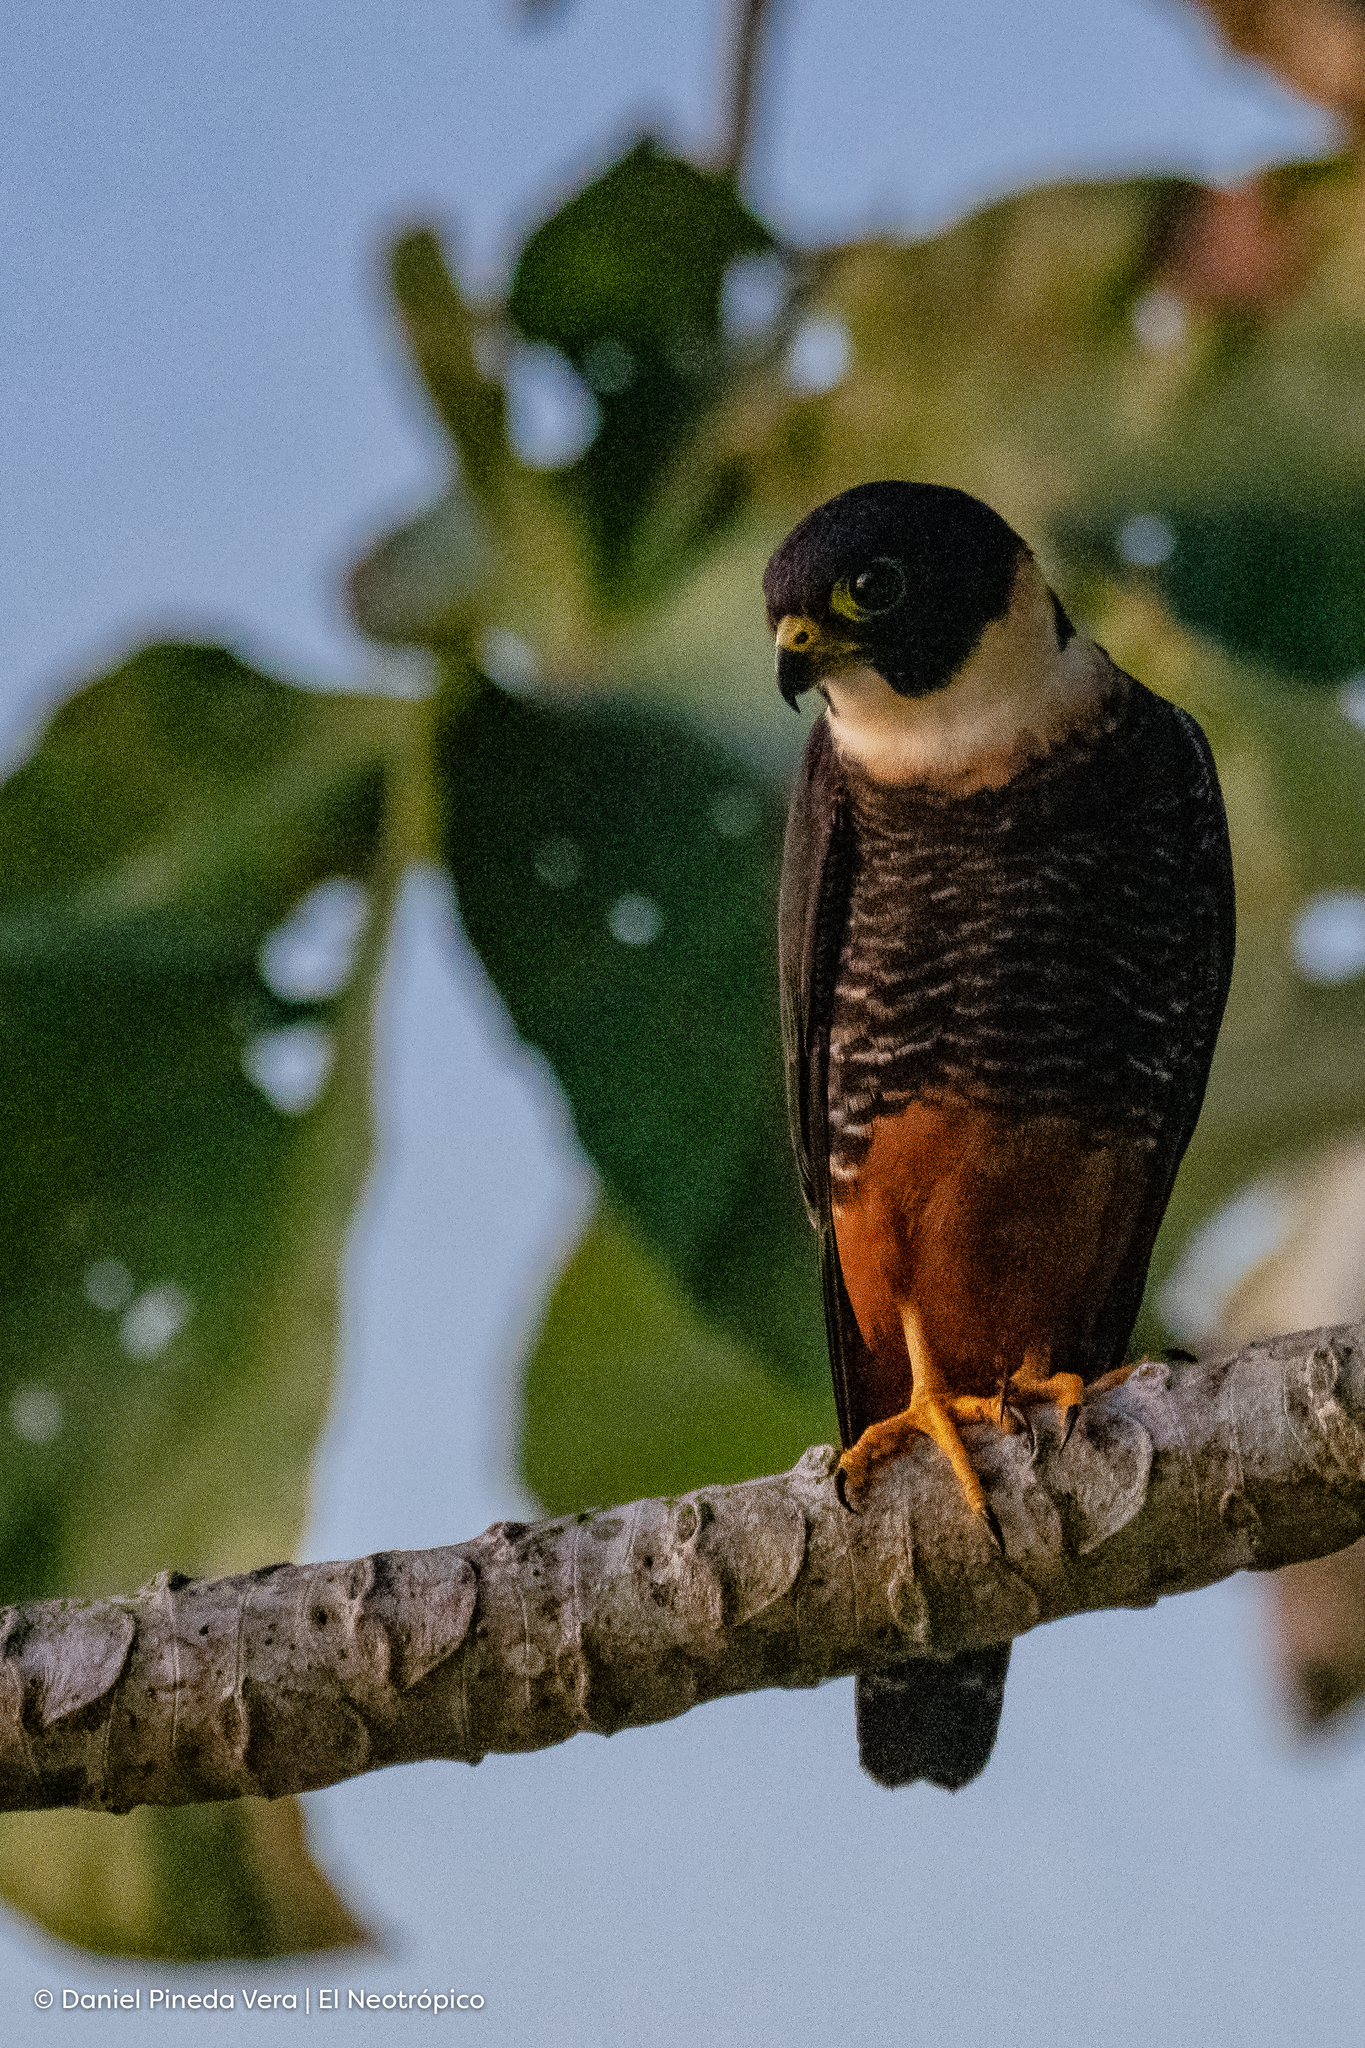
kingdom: Animalia
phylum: Chordata
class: Aves
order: Falconiformes
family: Falconidae
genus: Falco
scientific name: Falco rufigularis
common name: Bat falcon
